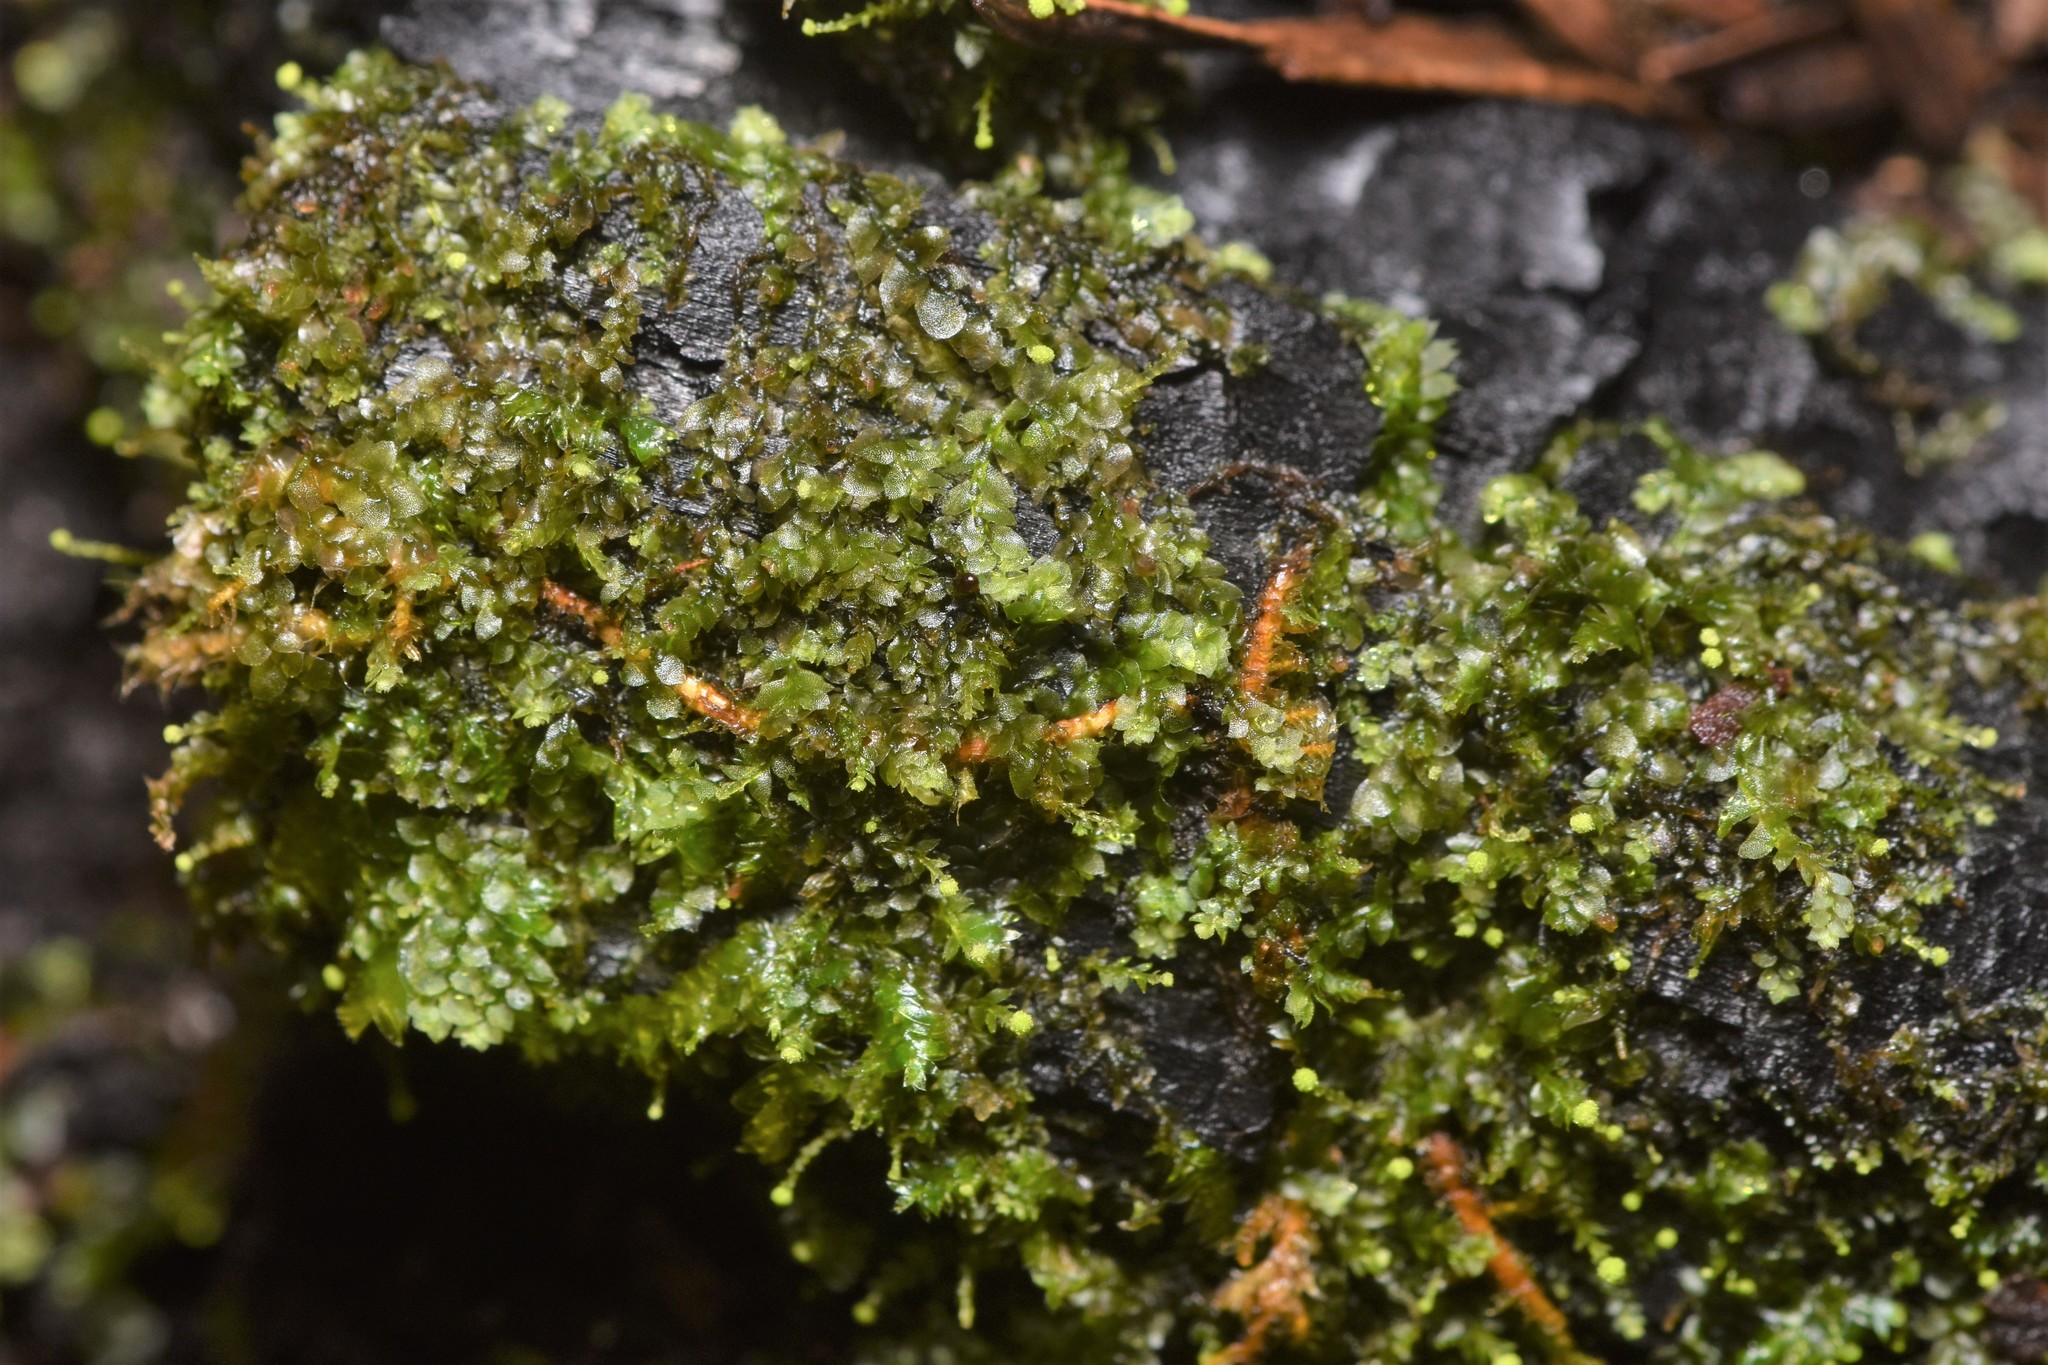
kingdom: Plantae
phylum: Marchantiophyta
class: Jungermanniopsida
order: Jungermanniales
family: Calypogeiaceae
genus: Calypogeia
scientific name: Calypogeia muelleriana
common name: Mueller s pouchwort
